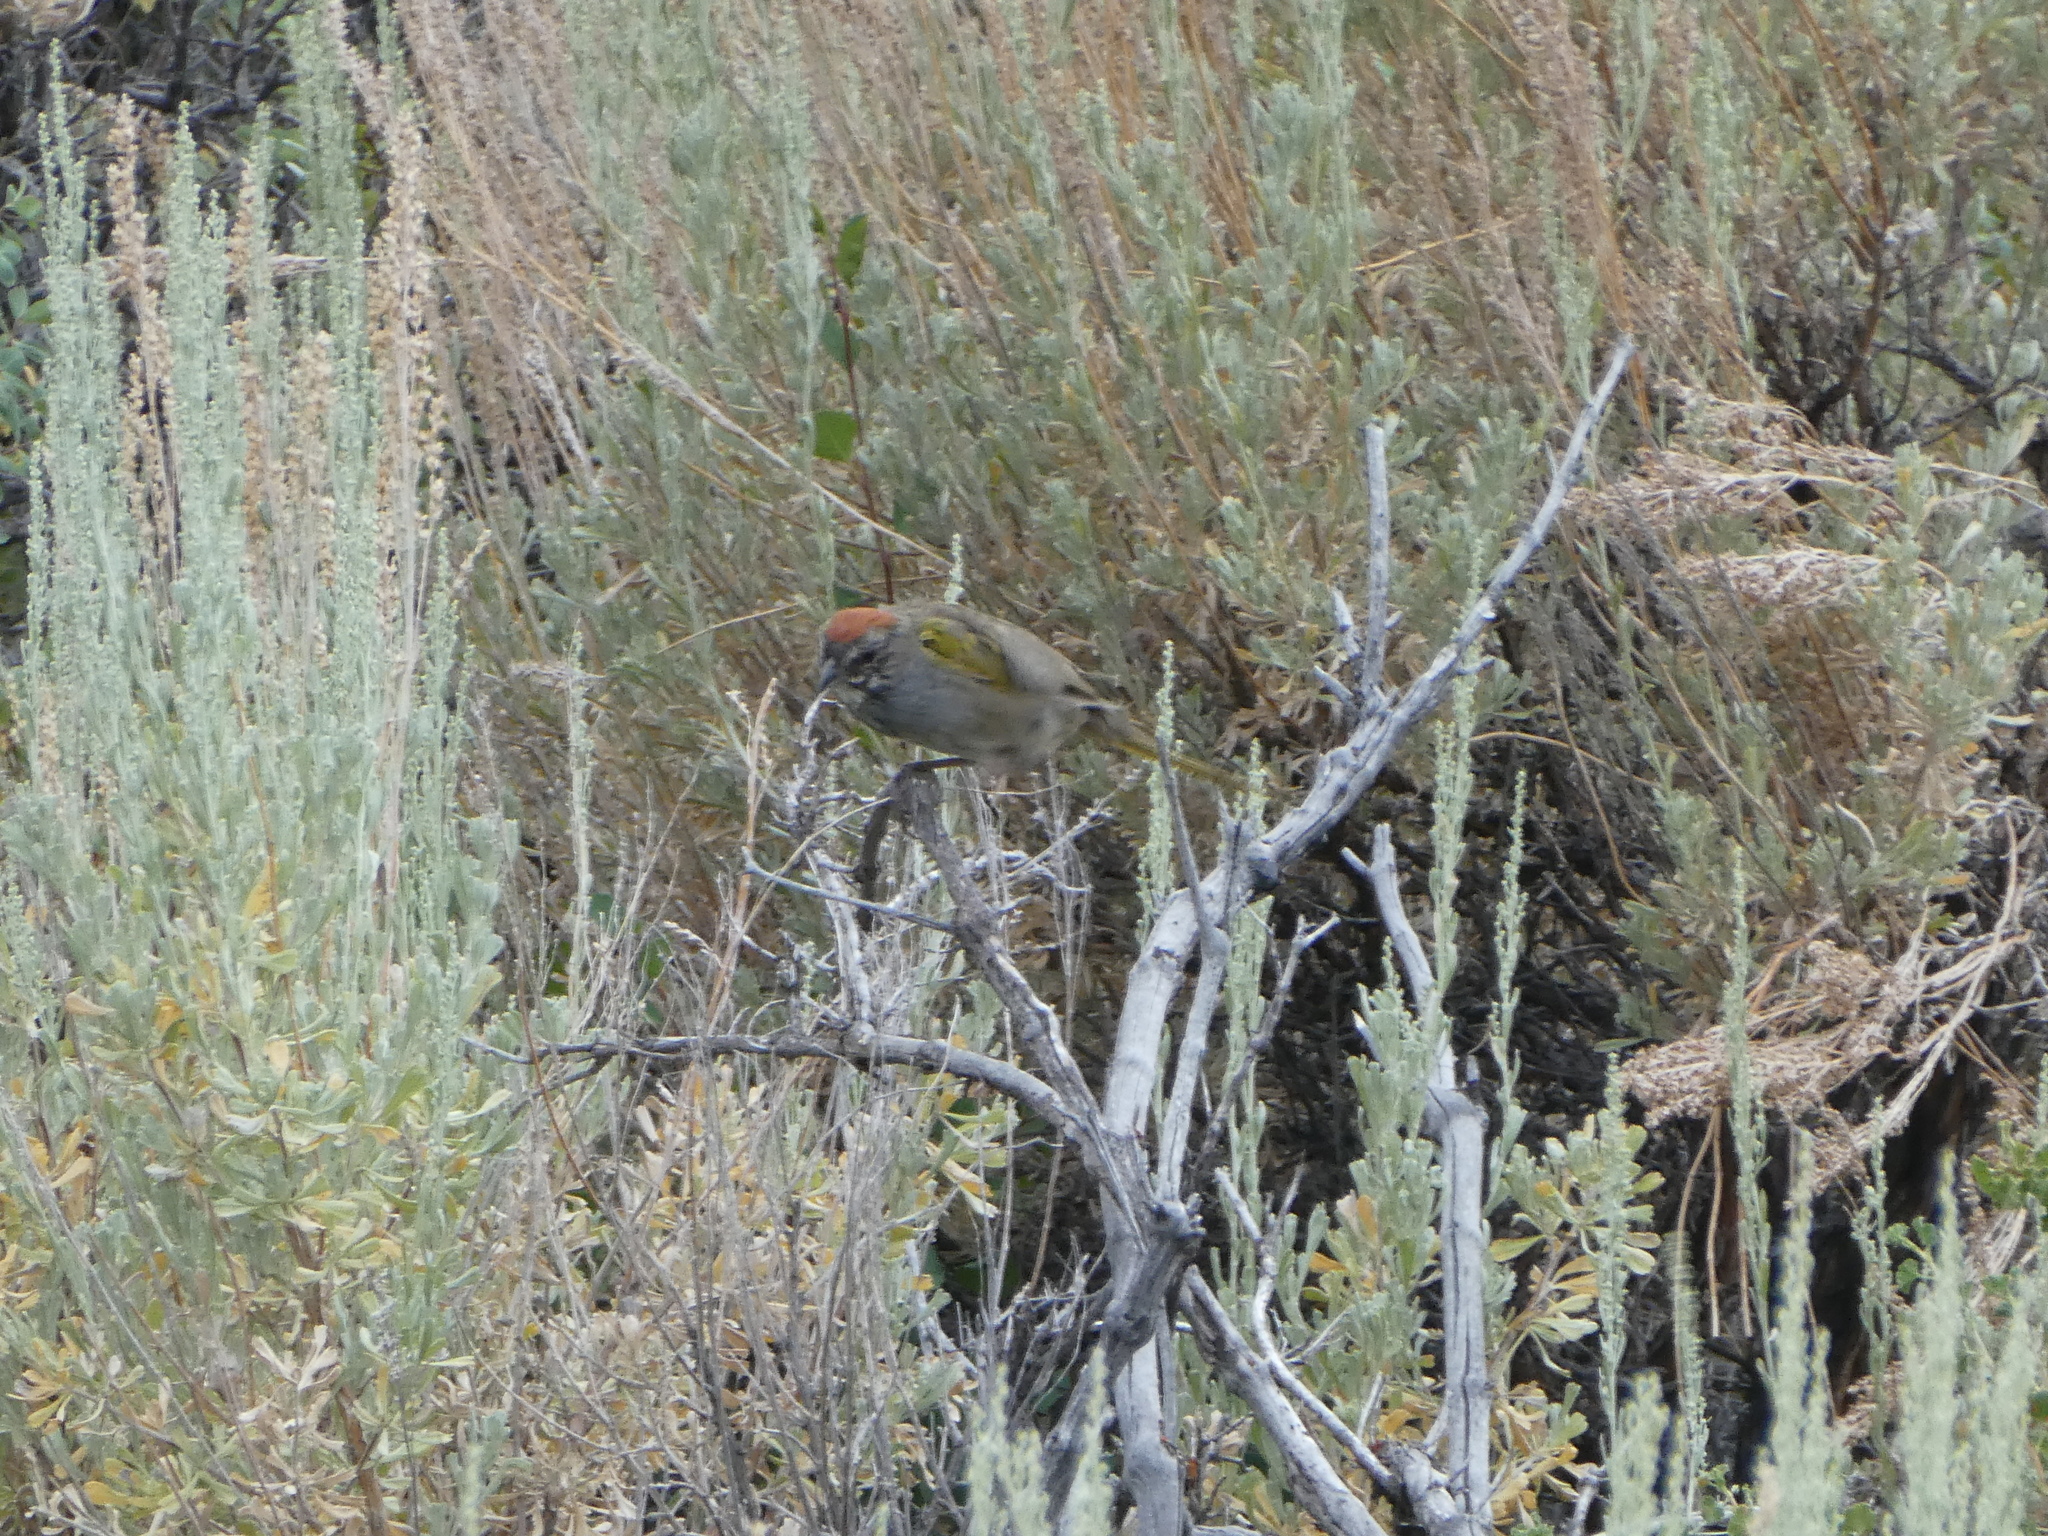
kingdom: Animalia
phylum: Chordata
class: Aves
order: Passeriformes
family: Passerellidae
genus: Pipilo
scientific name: Pipilo chlorurus
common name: Green-tailed towhee
